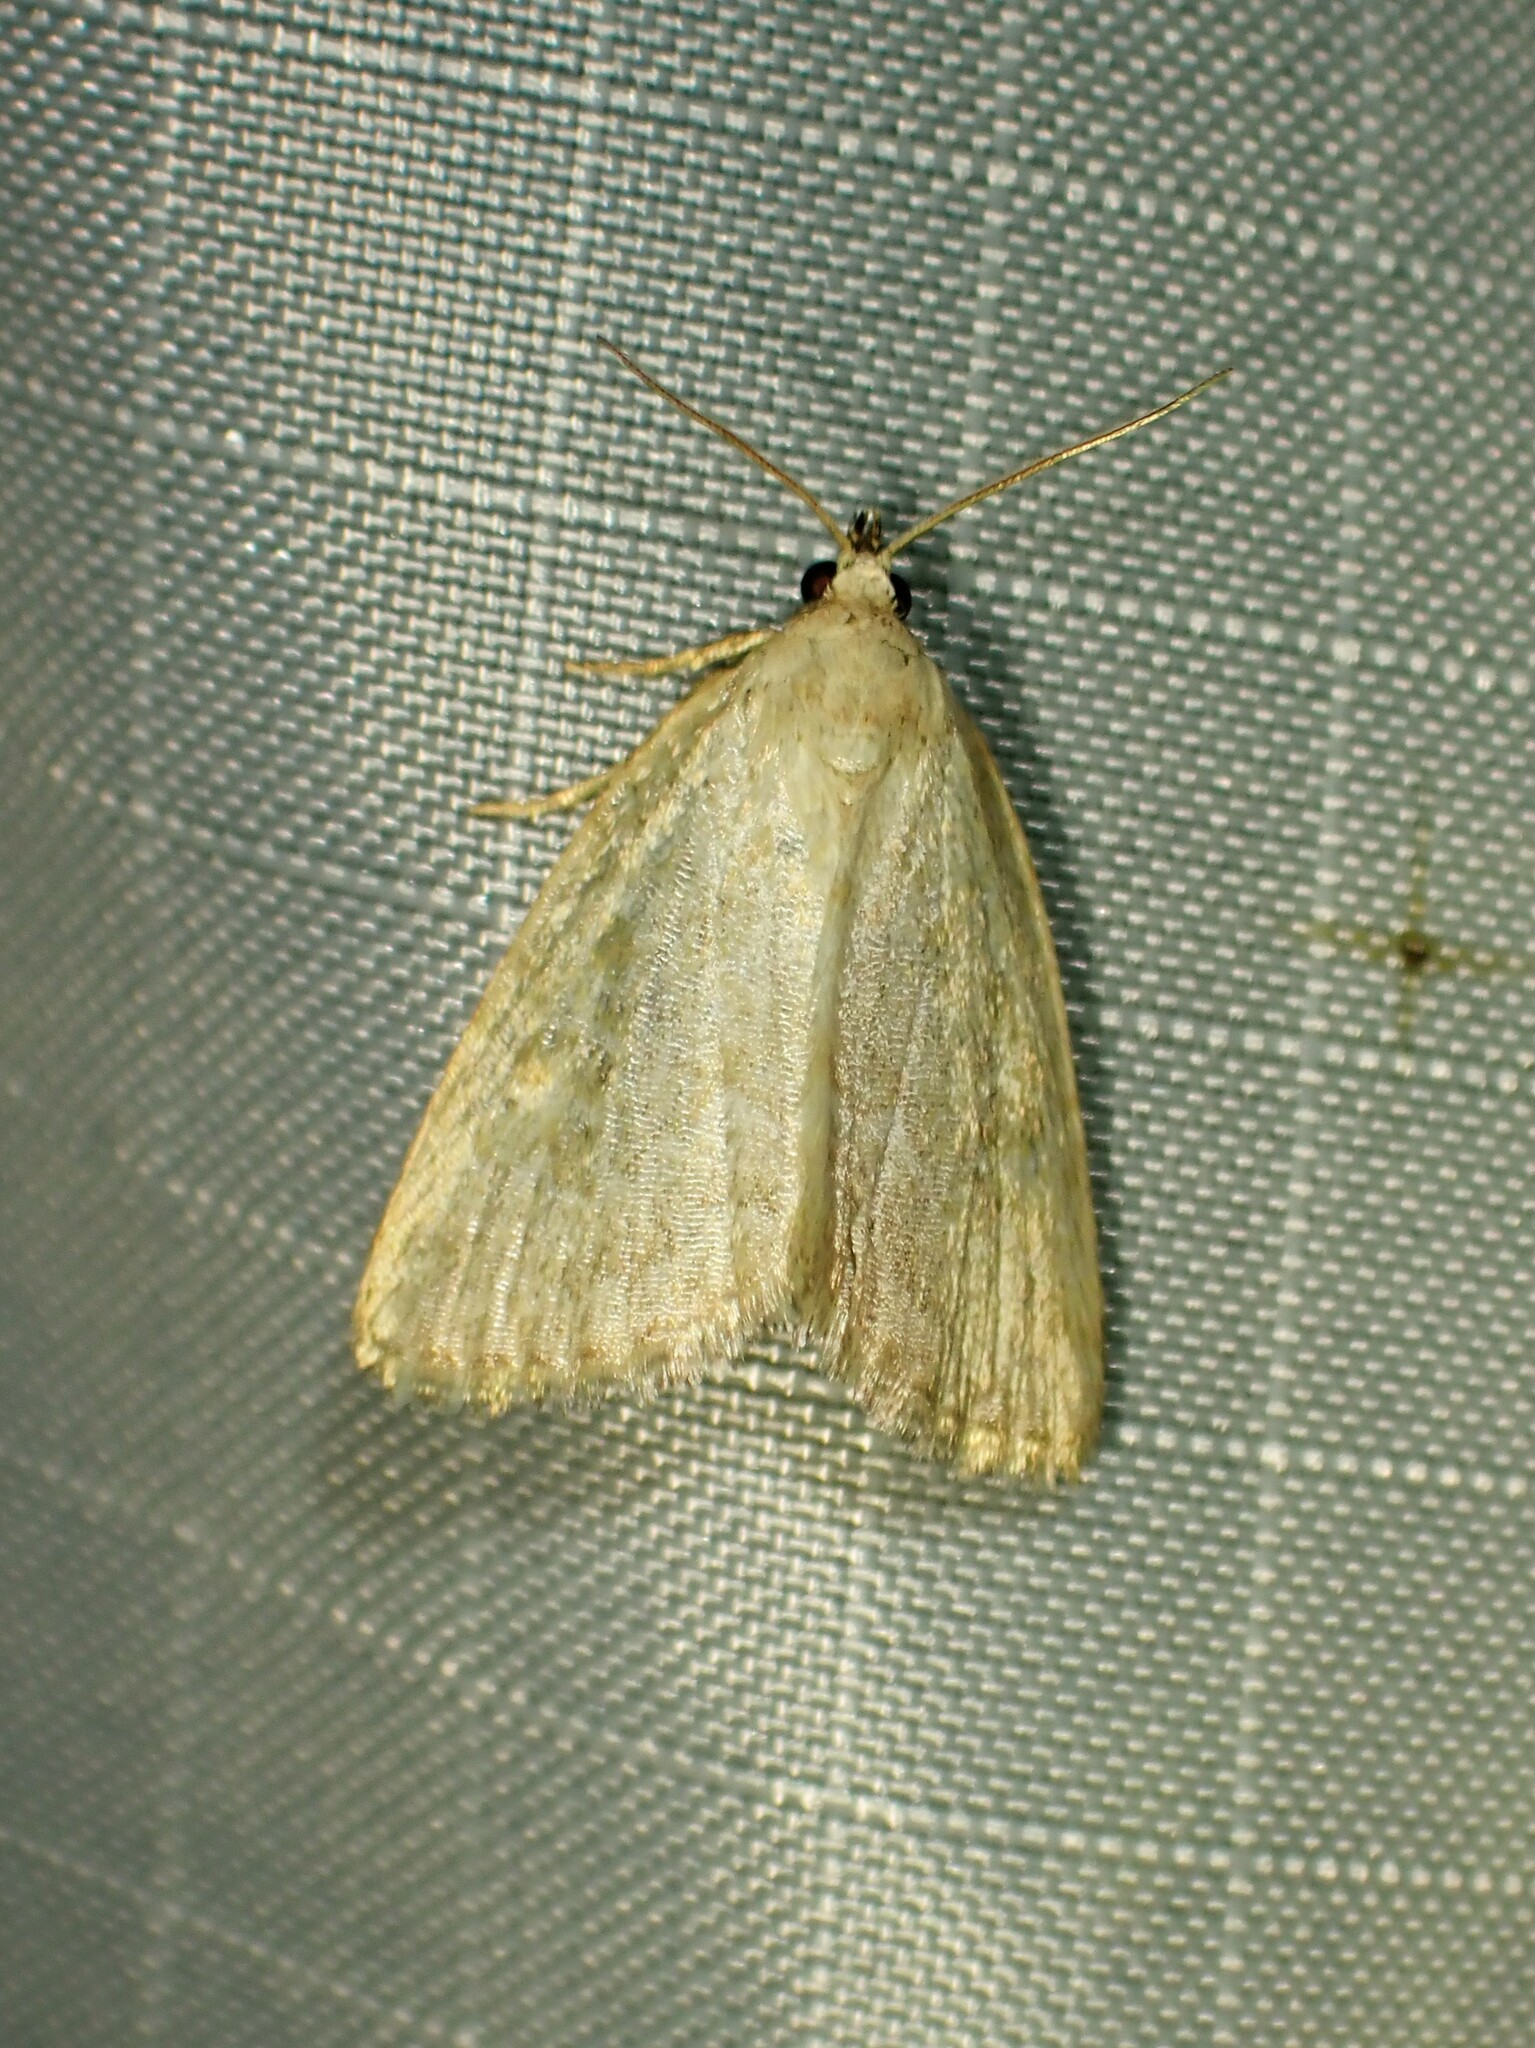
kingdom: Animalia
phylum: Arthropoda
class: Insecta
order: Lepidoptera
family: Noctuidae
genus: Protodeltote
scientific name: Protodeltote albidula
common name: Pale glyph
